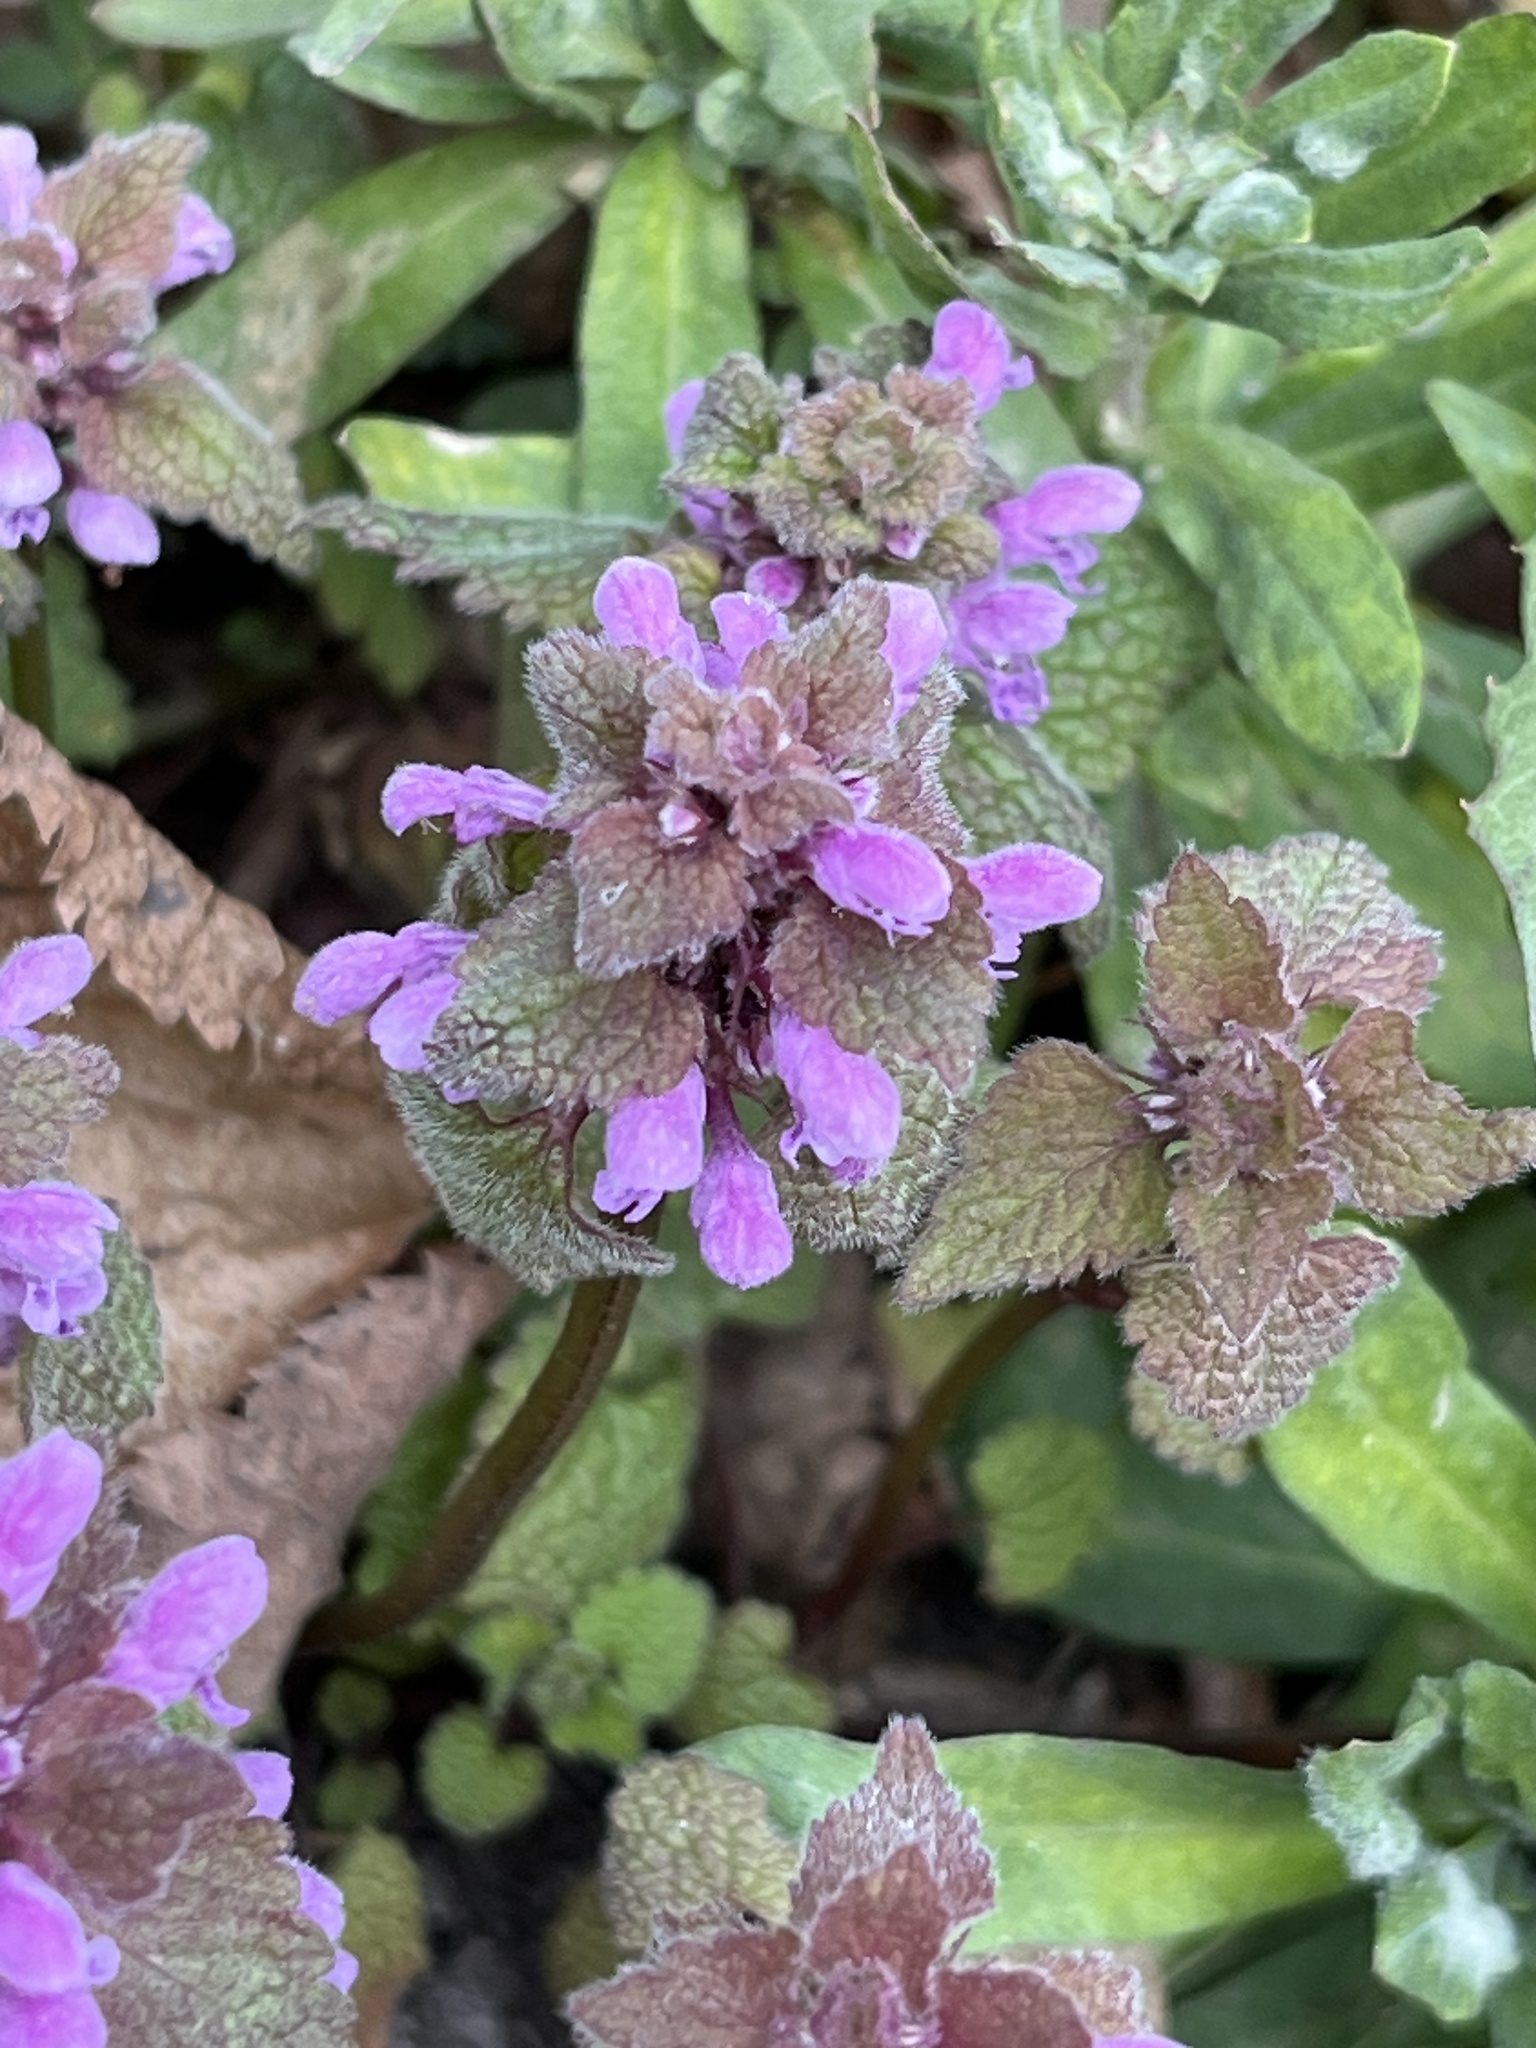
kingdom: Plantae
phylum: Tracheophyta
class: Magnoliopsida
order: Lamiales
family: Lamiaceae
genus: Lamium
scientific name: Lamium purpureum
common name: Red dead-nettle
